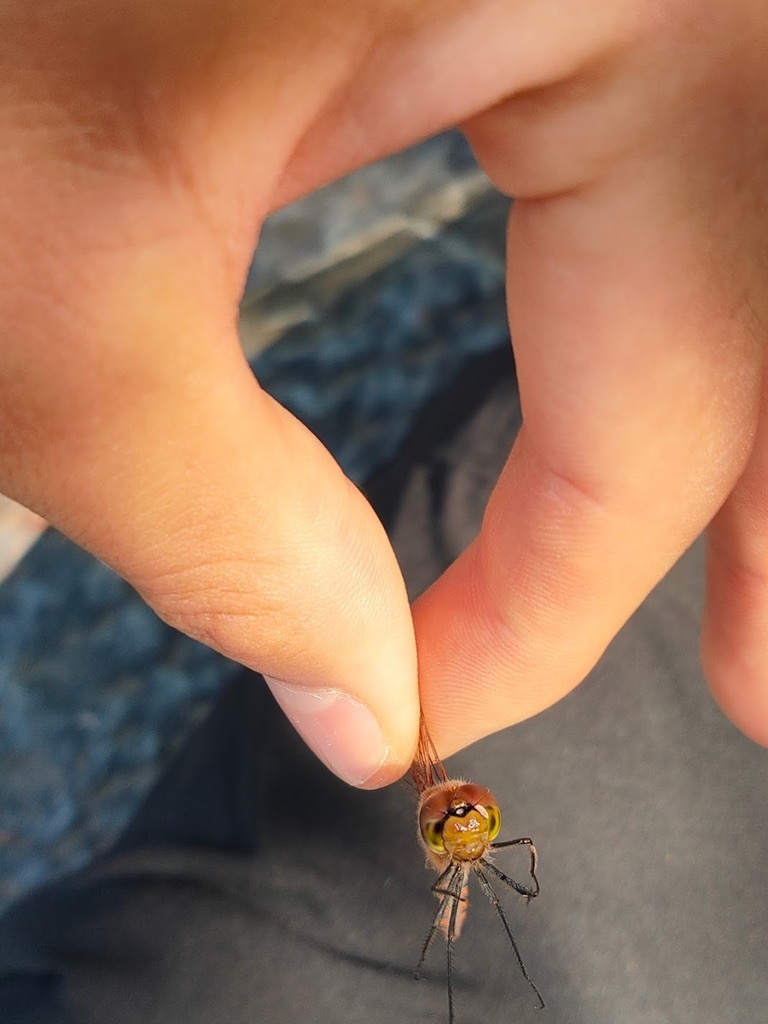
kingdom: Animalia
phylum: Arthropoda
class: Insecta
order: Odonata
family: Libellulidae
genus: Sympetrum
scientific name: Sympetrum frequens
